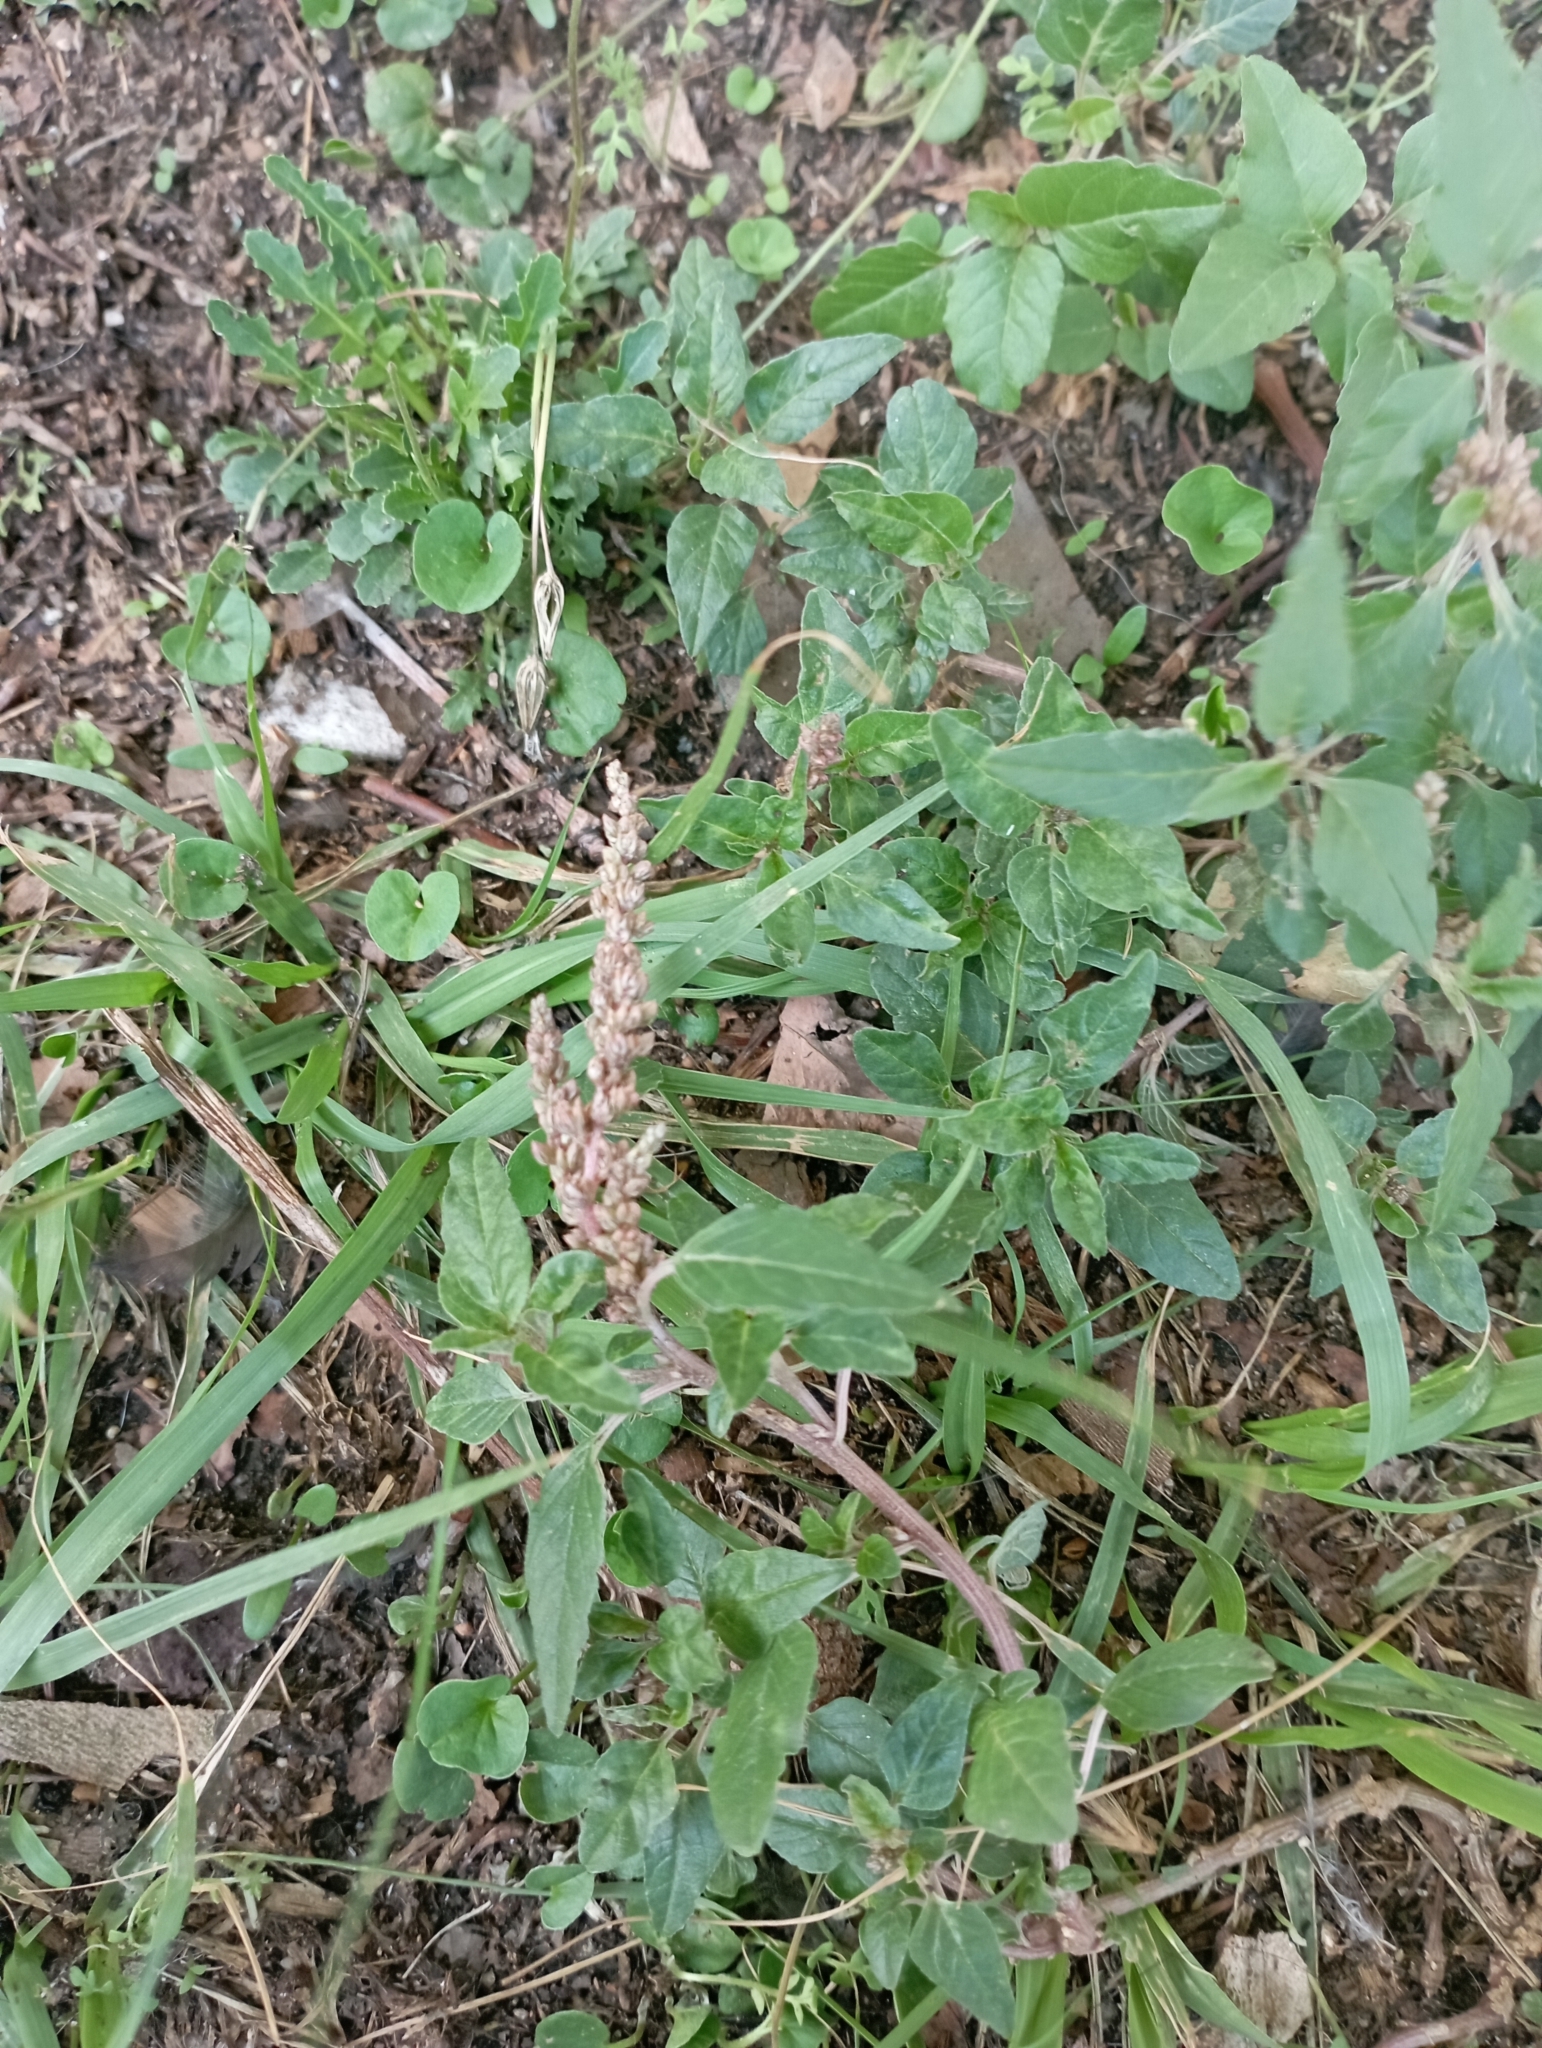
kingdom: Plantae
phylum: Tracheophyta
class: Magnoliopsida
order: Caryophyllales
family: Amaranthaceae
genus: Amaranthus
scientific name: Amaranthus deflexus
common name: Perennial pigweed
